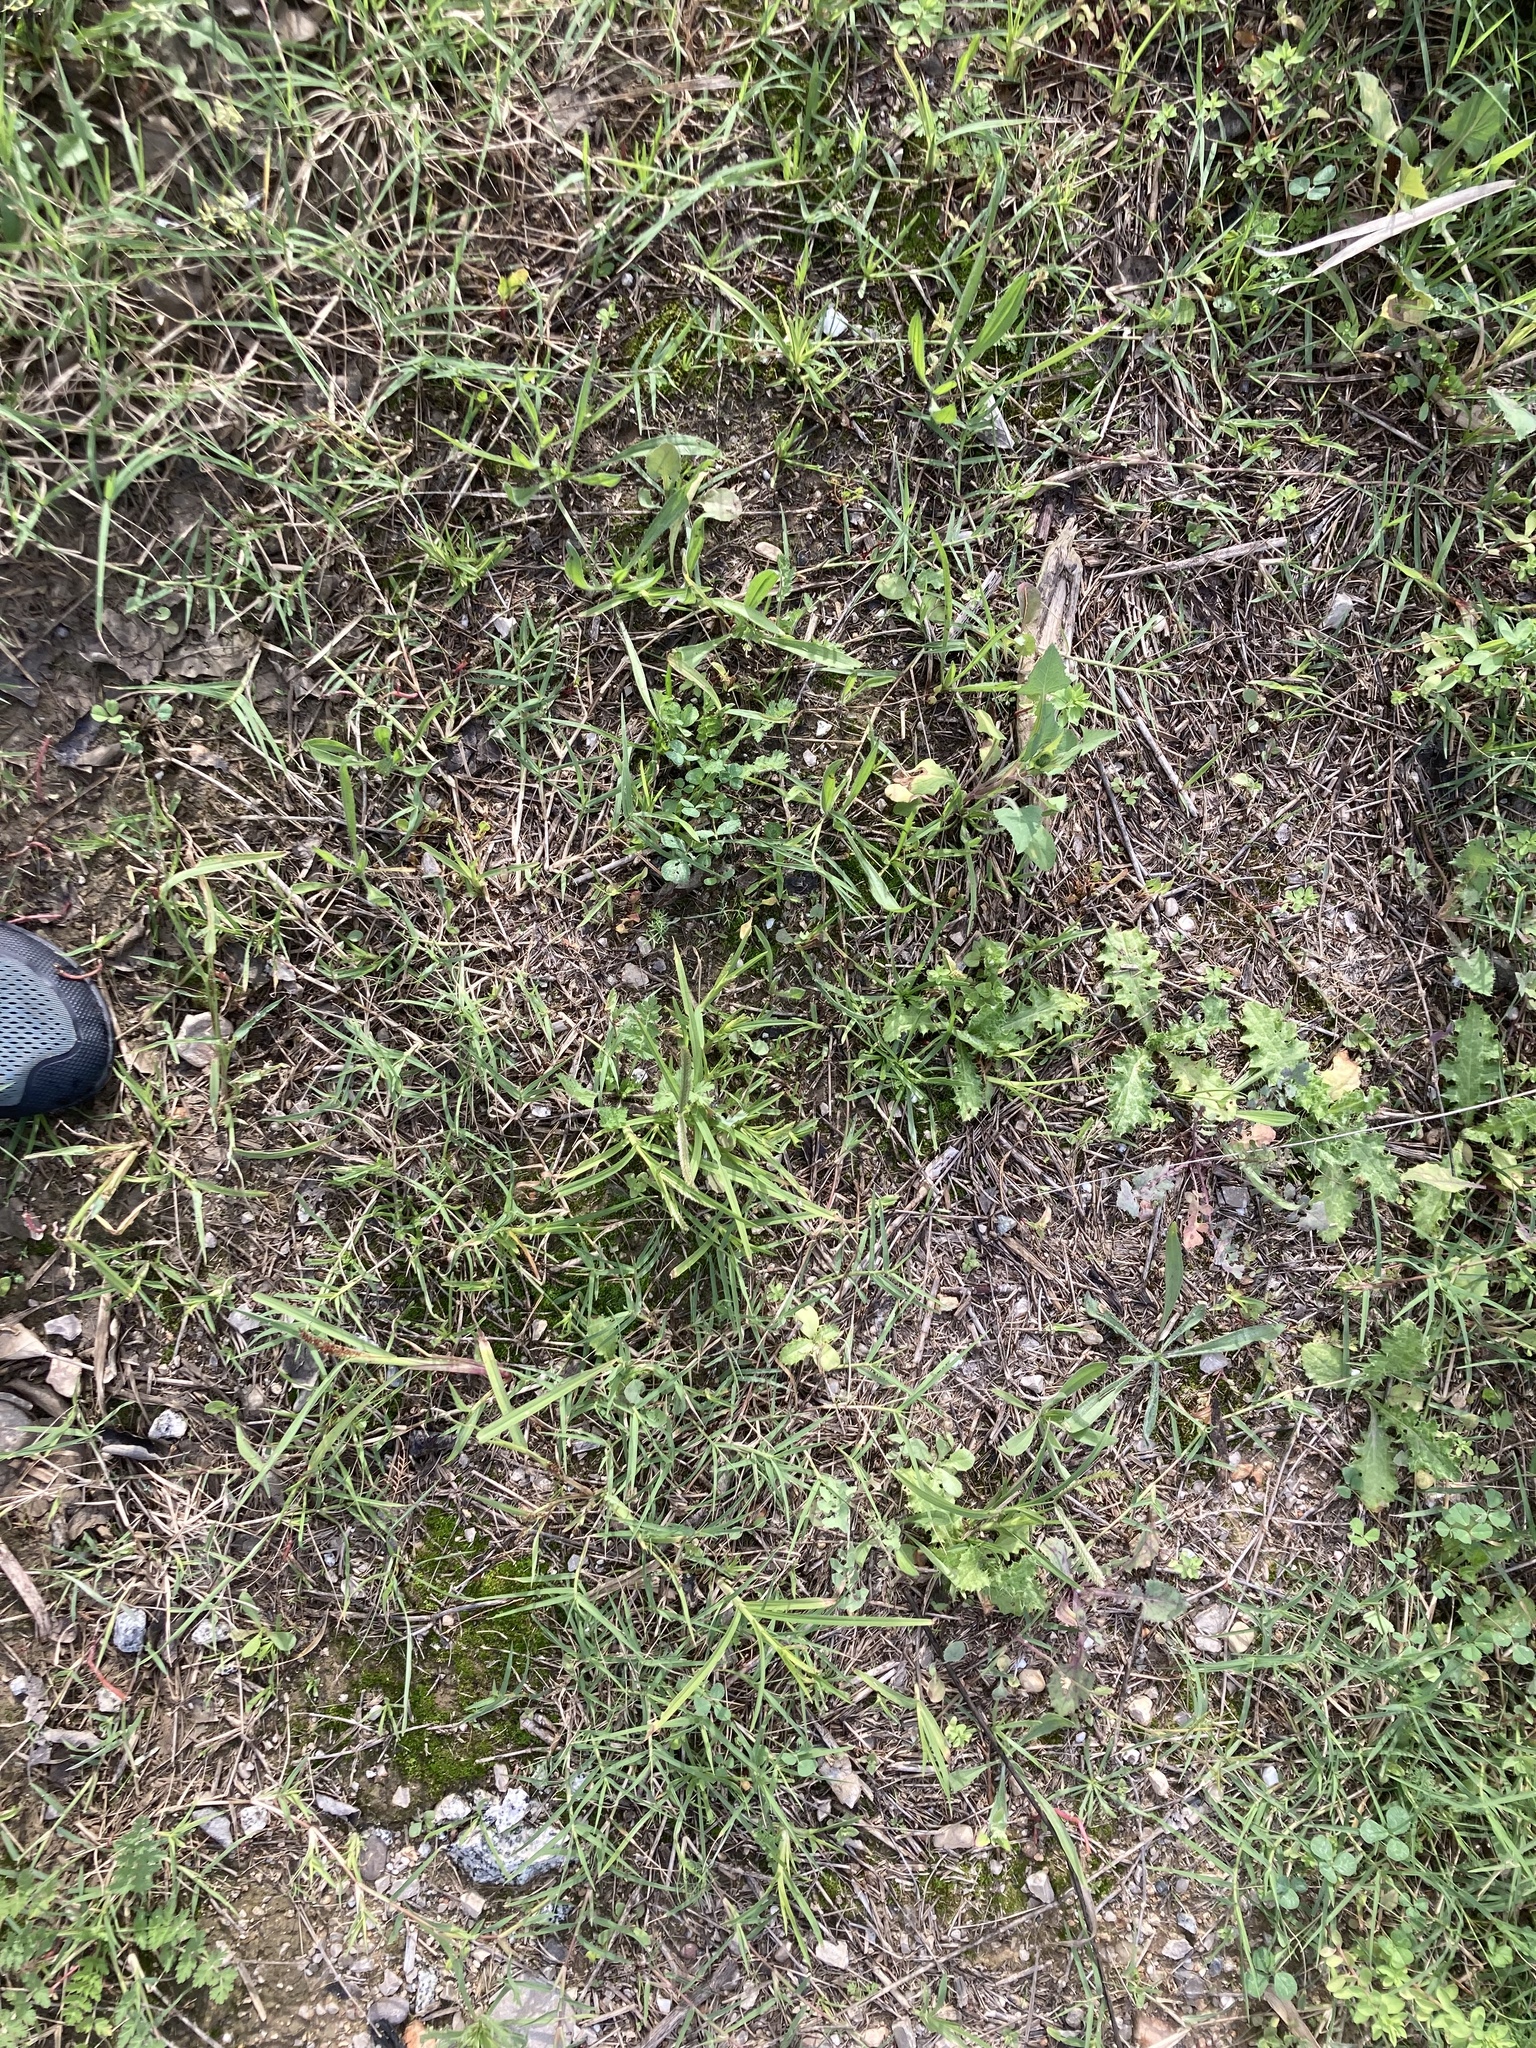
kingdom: Plantae
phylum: Tracheophyta
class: Liliopsida
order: Poales
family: Poaceae
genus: Eleusine
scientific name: Eleusine indica
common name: Yard-grass
